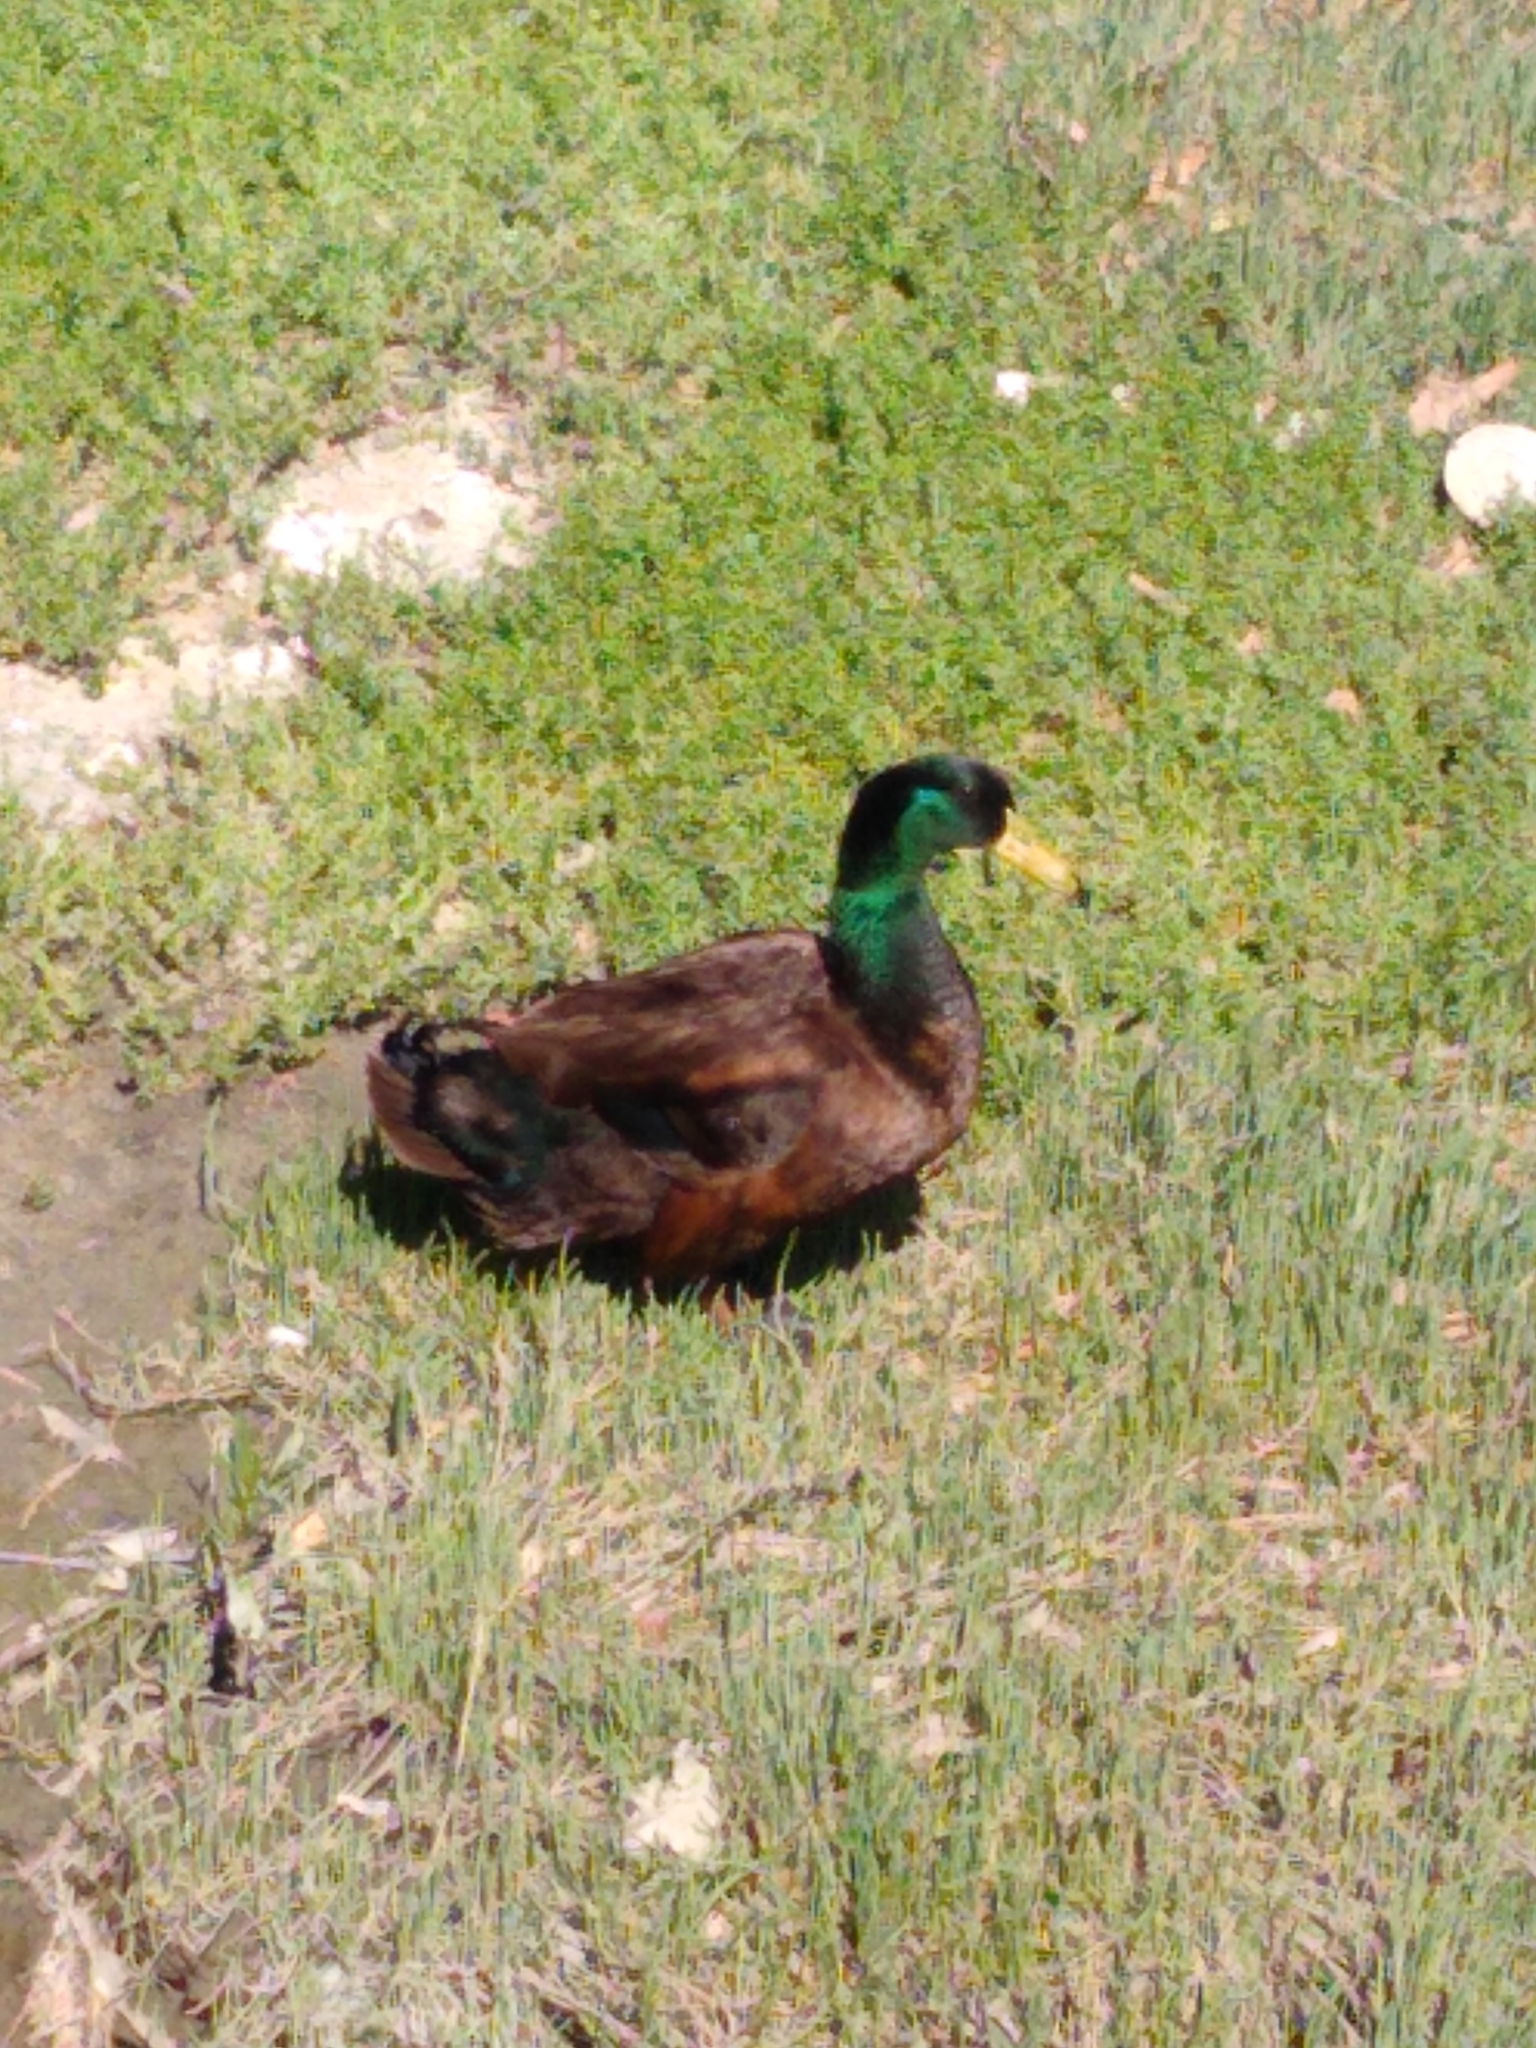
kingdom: Animalia
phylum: Chordata
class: Aves
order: Anseriformes
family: Anatidae
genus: Anas
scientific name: Anas platyrhynchos
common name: Mallard
